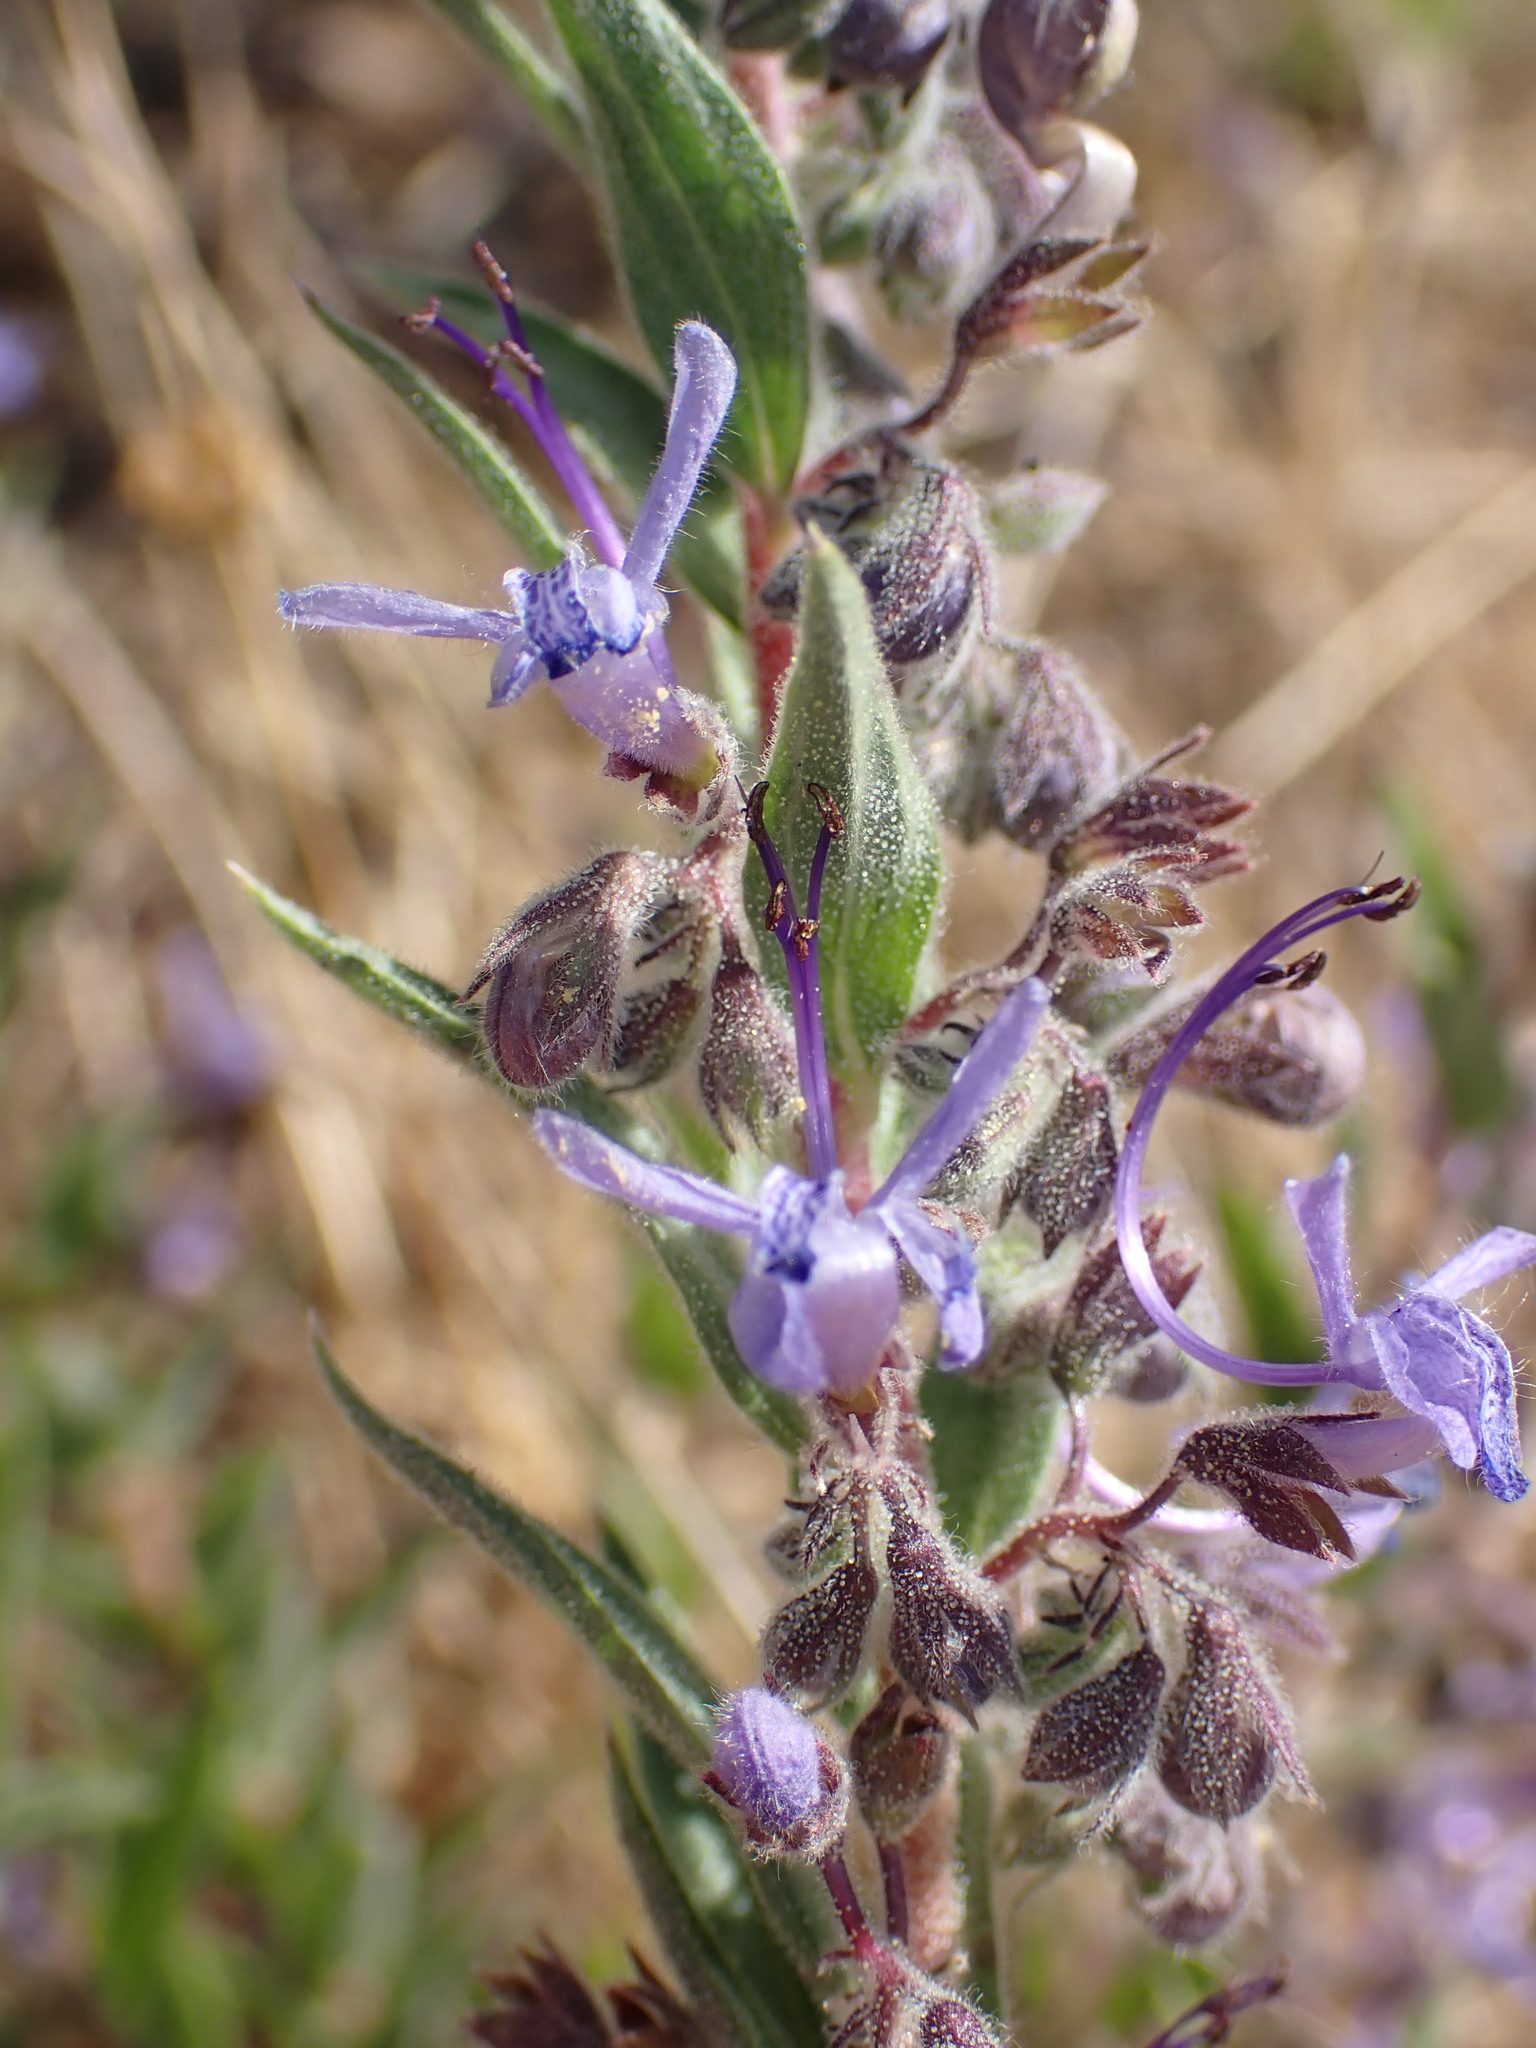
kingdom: Plantae
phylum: Tracheophyta
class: Magnoliopsida
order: Lamiales
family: Lamiaceae
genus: Trichostema
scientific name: Trichostema lanceolatum
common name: Vinegar-weed
